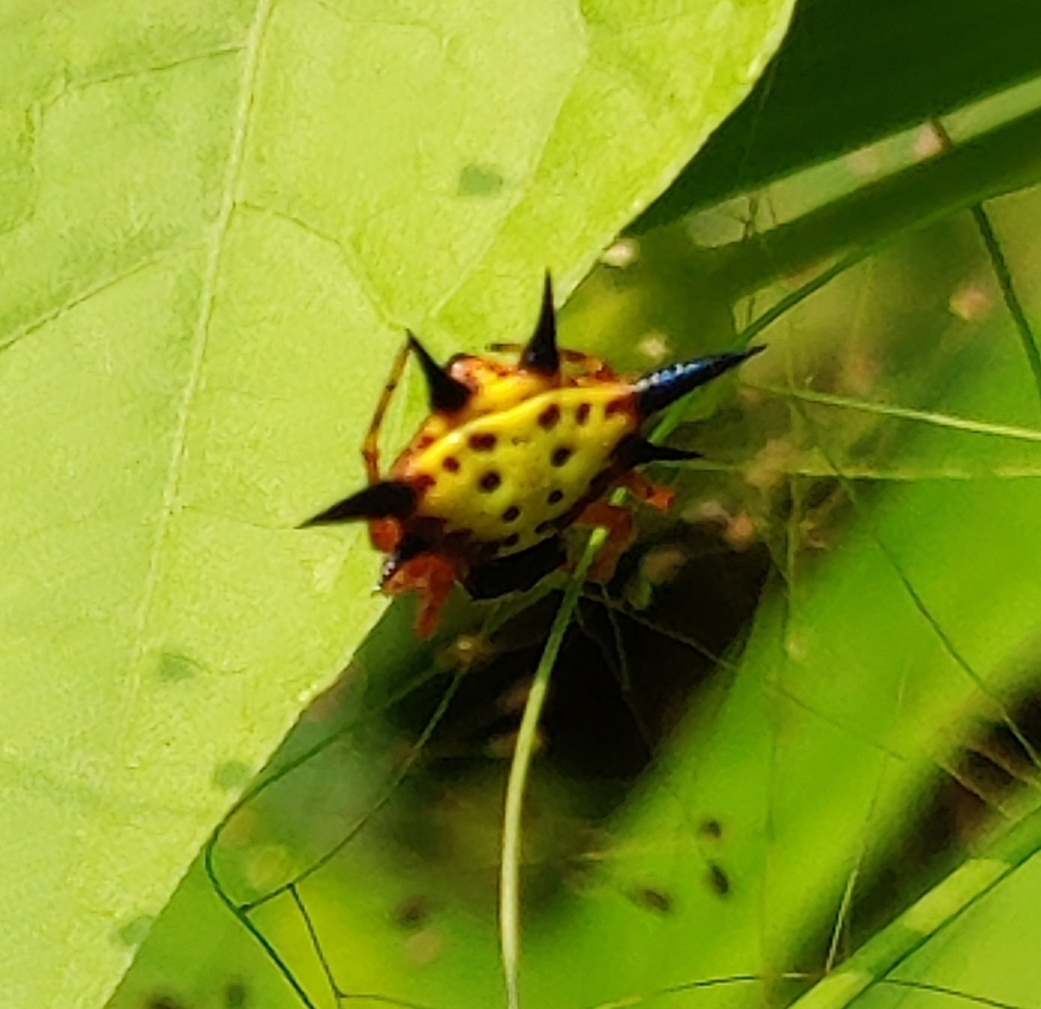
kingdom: Animalia
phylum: Arthropoda
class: Arachnida
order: Araneae
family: Araneidae
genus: Macracantha
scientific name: Macracantha hasselti
